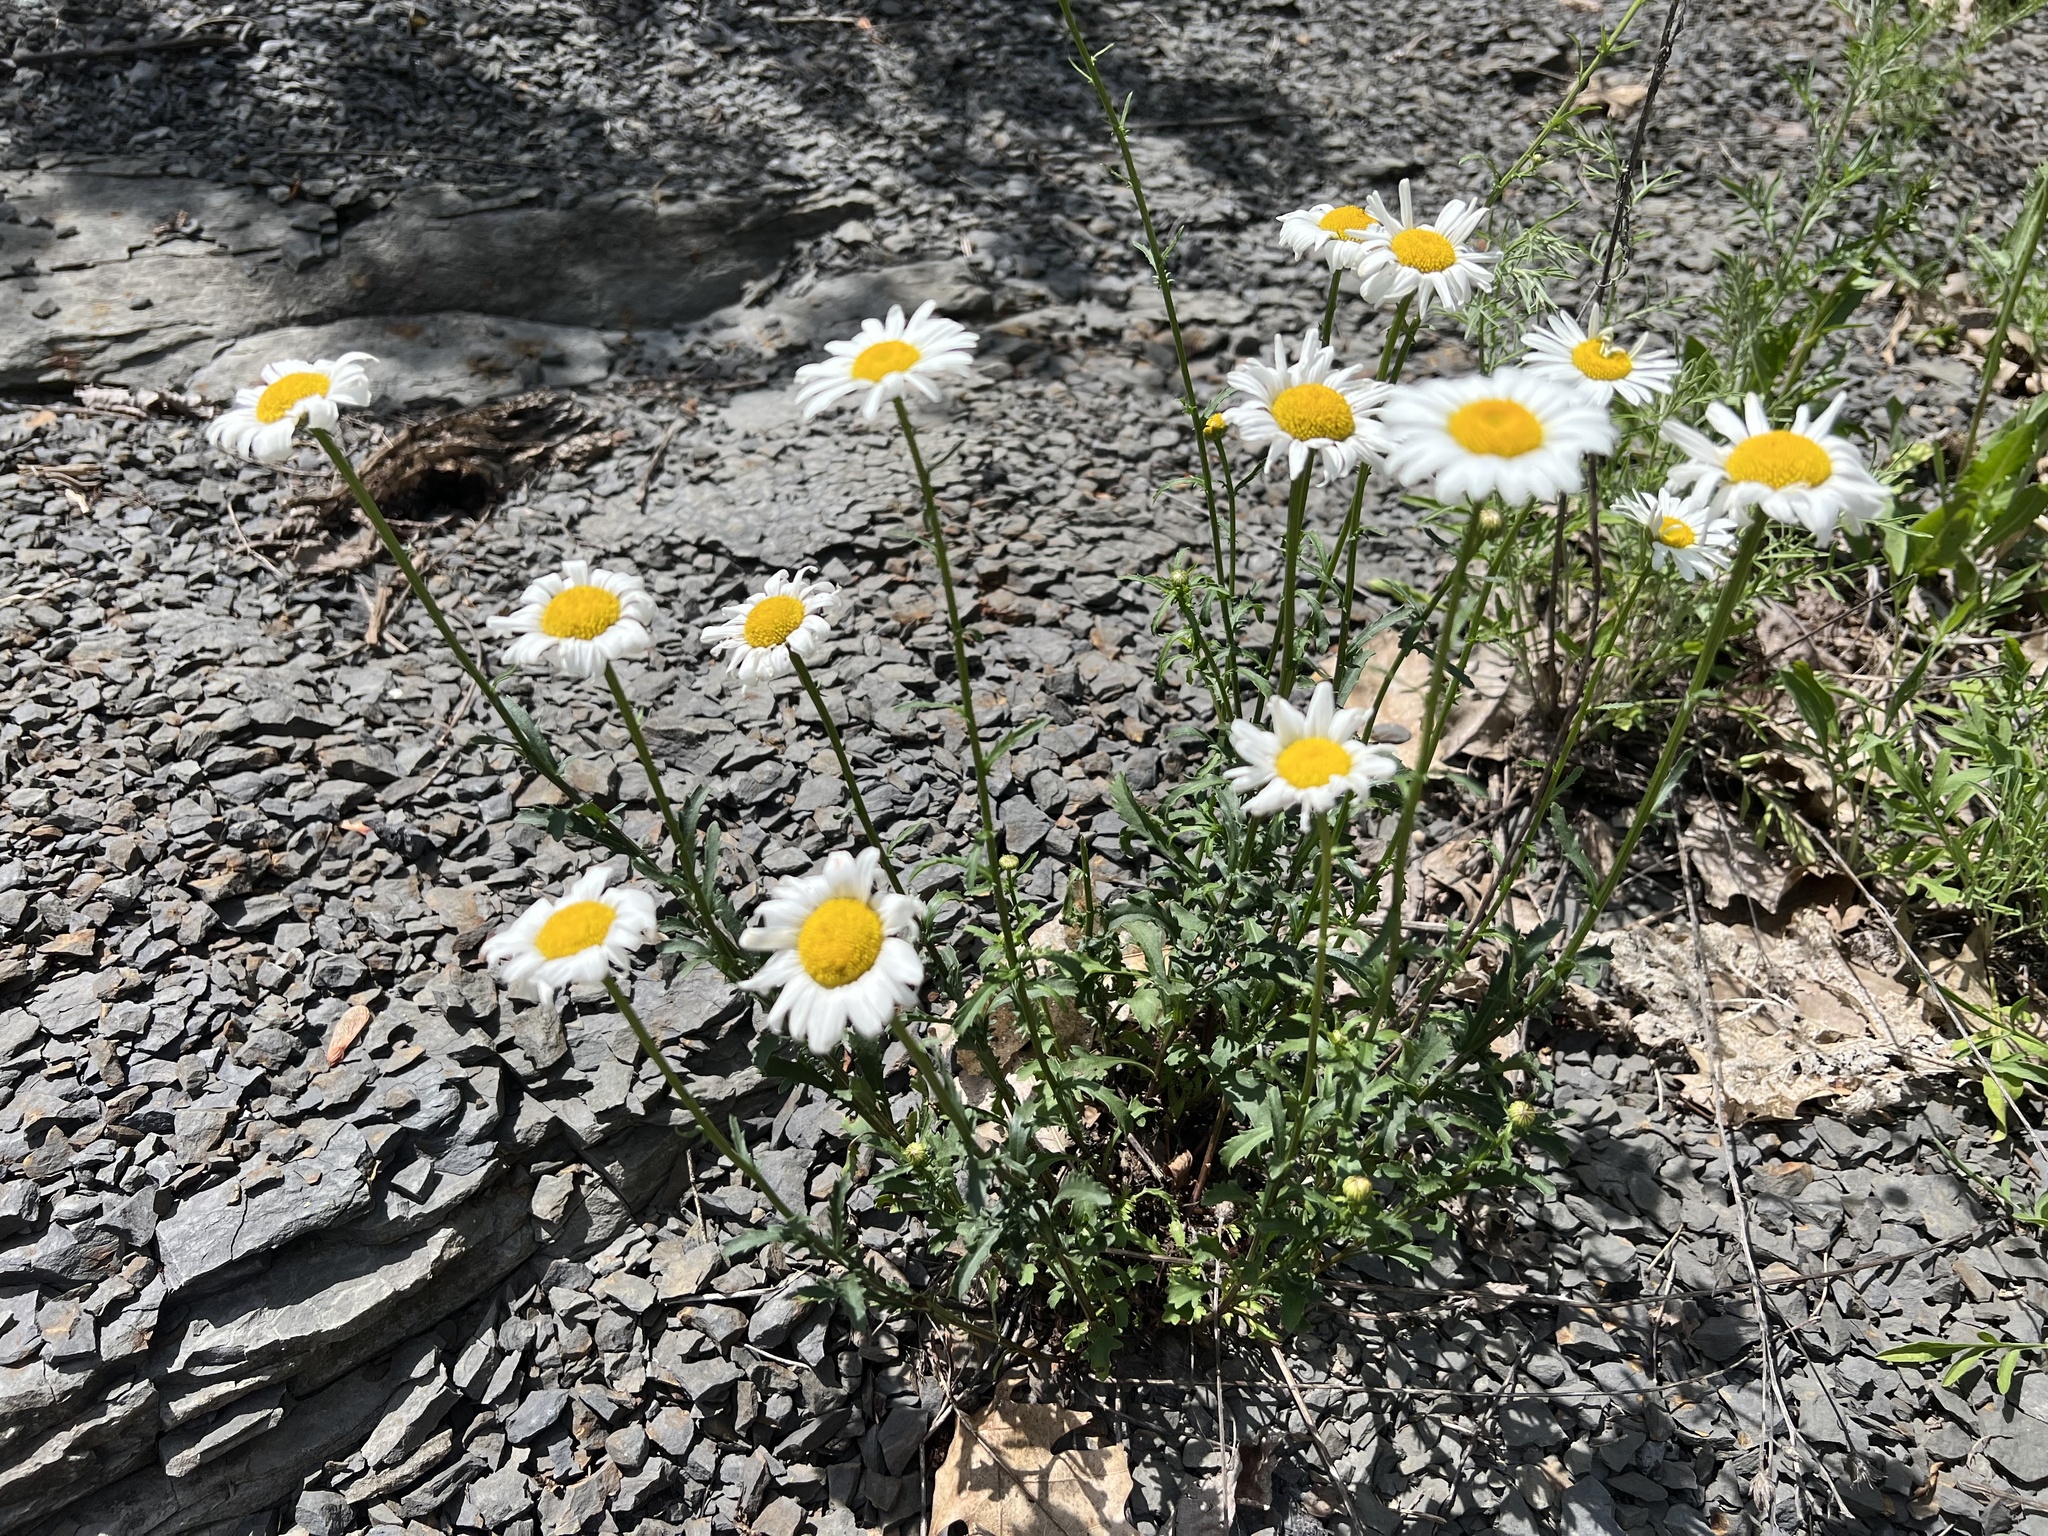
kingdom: Plantae
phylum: Tracheophyta
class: Magnoliopsida
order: Asterales
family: Asteraceae
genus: Leucanthemum
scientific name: Leucanthemum vulgare
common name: Oxeye daisy
